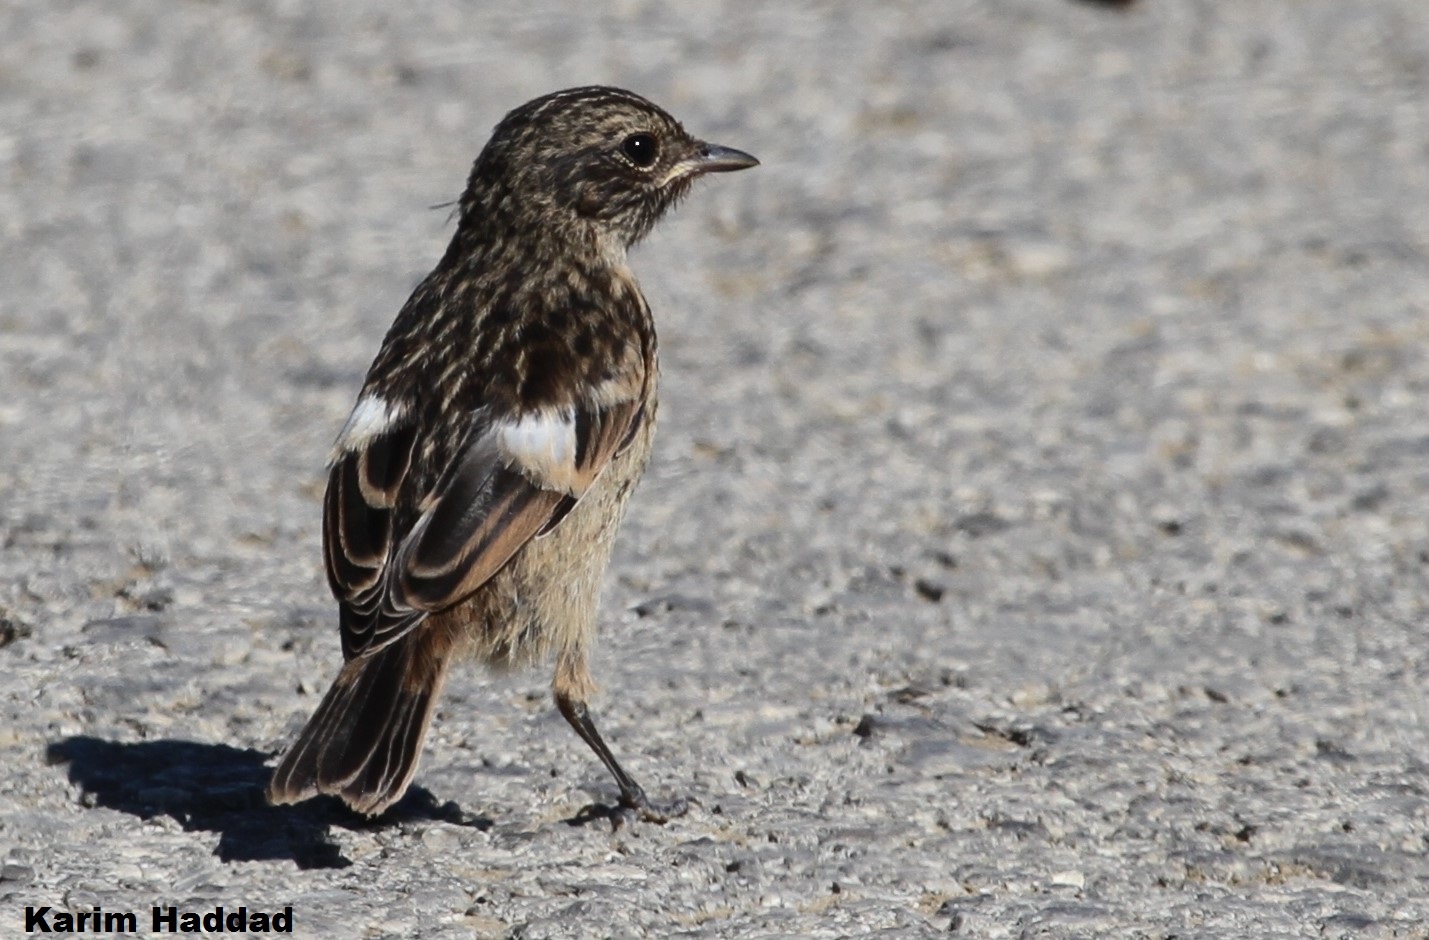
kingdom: Animalia
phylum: Chordata
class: Aves
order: Passeriformes
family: Muscicapidae
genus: Saxicola
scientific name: Saxicola rubicola
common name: European stonechat
